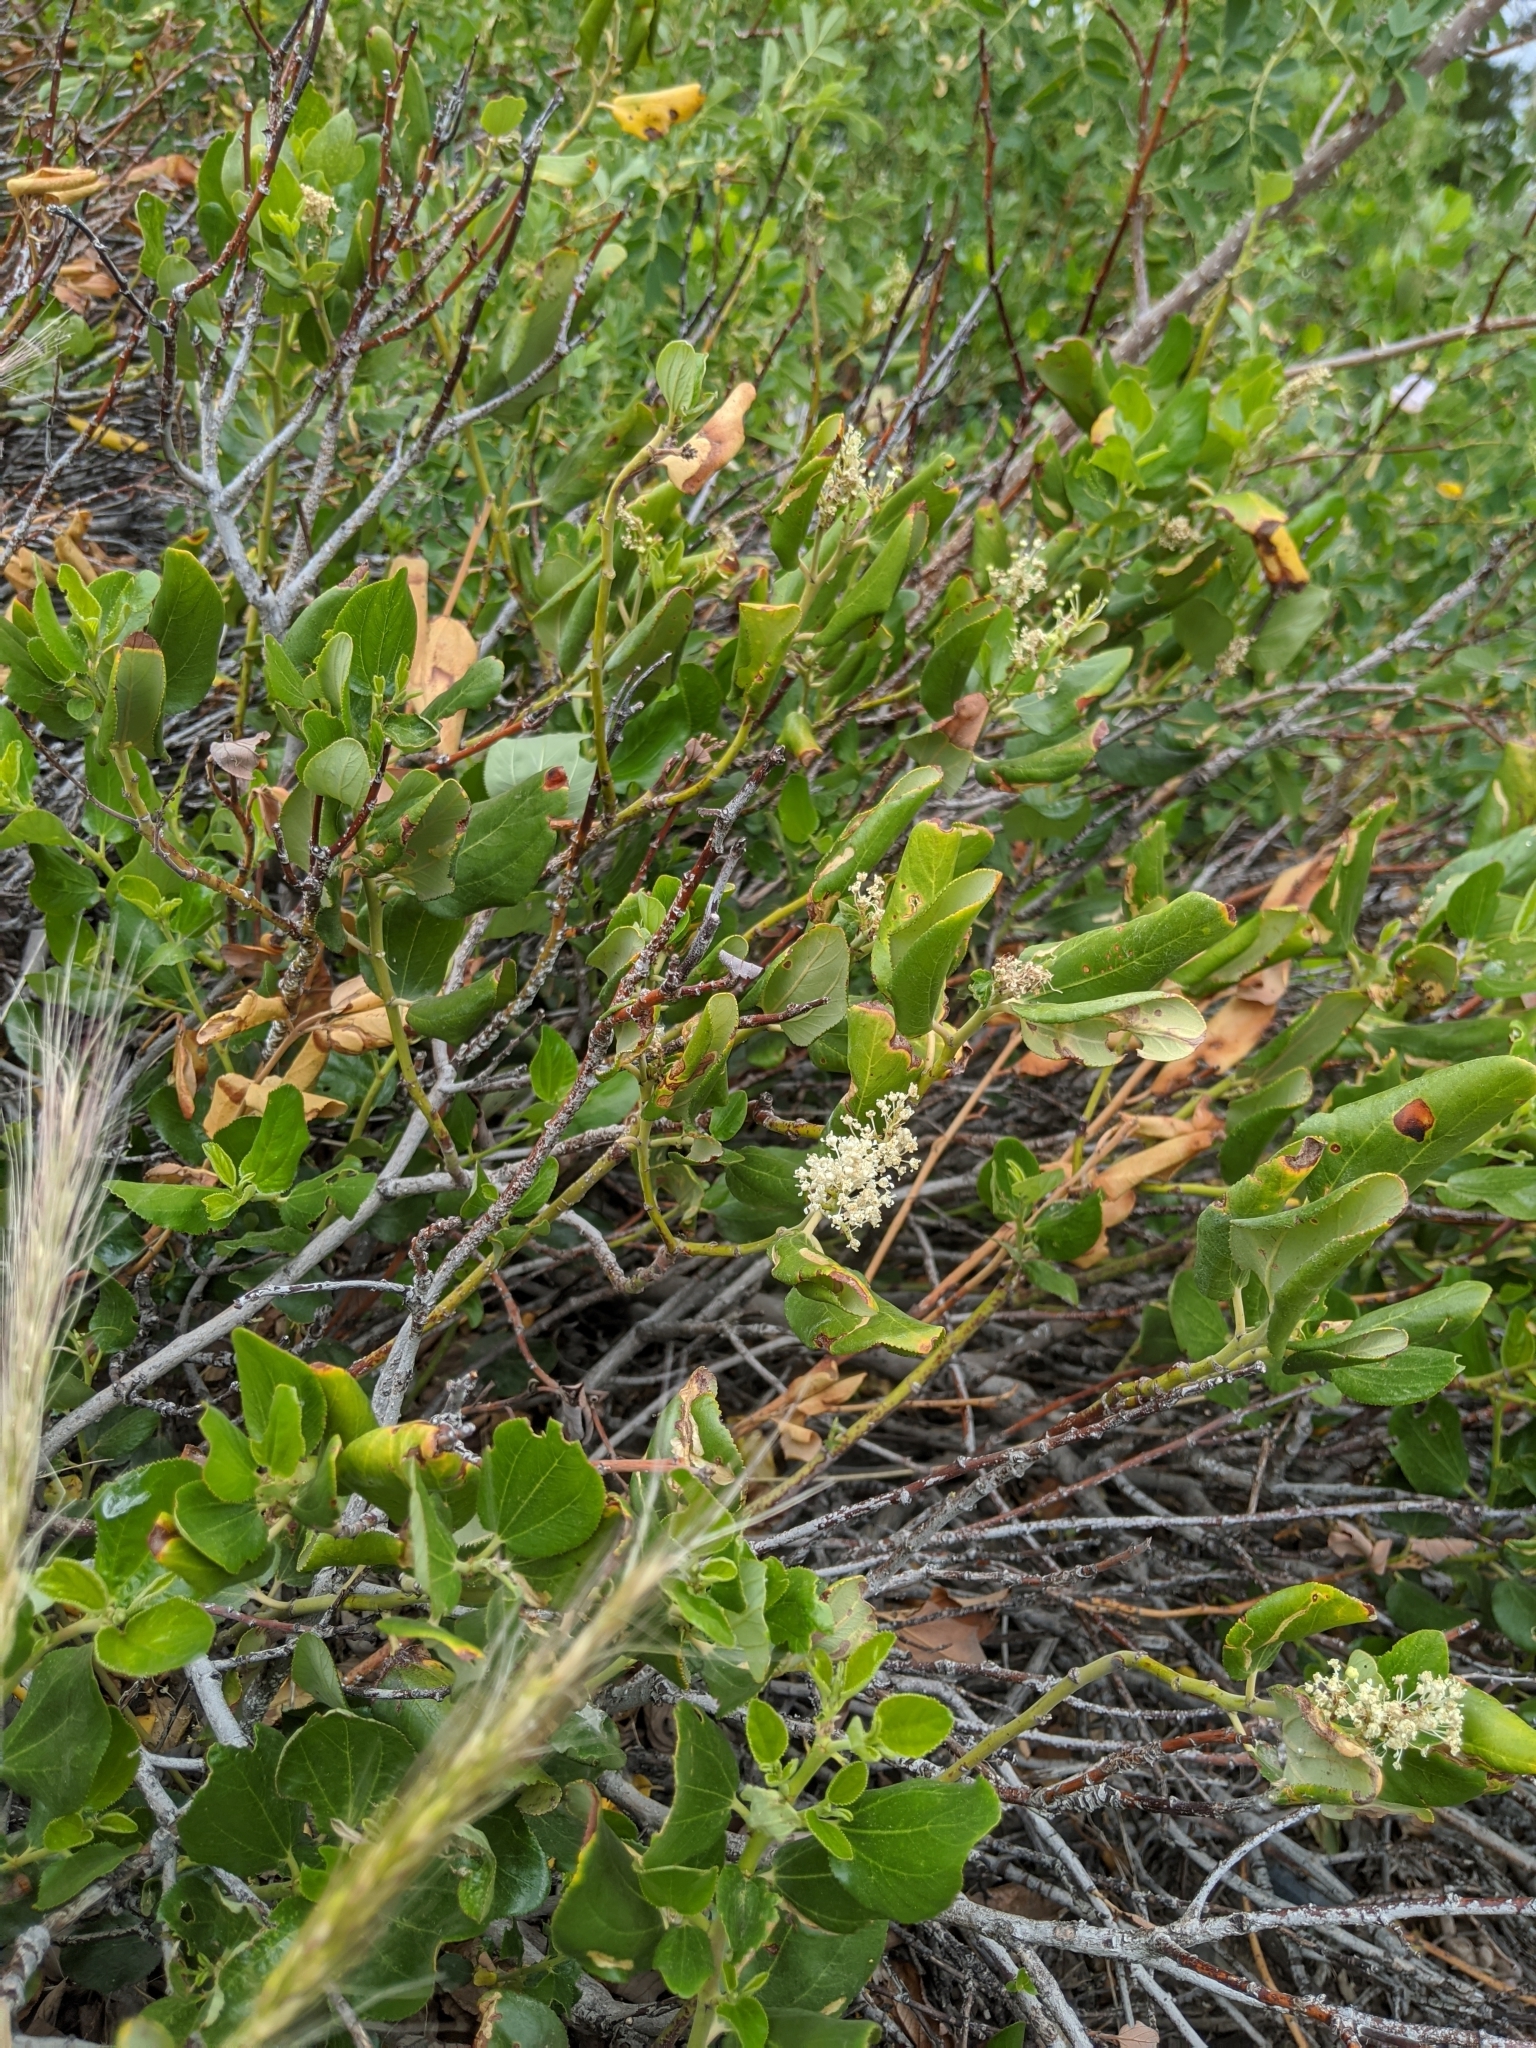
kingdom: Plantae
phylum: Tracheophyta
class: Magnoliopsida
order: Rosales
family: Rhamnaceae
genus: Ceanothus
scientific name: Ceanothus velutinus
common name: Snowbrush
